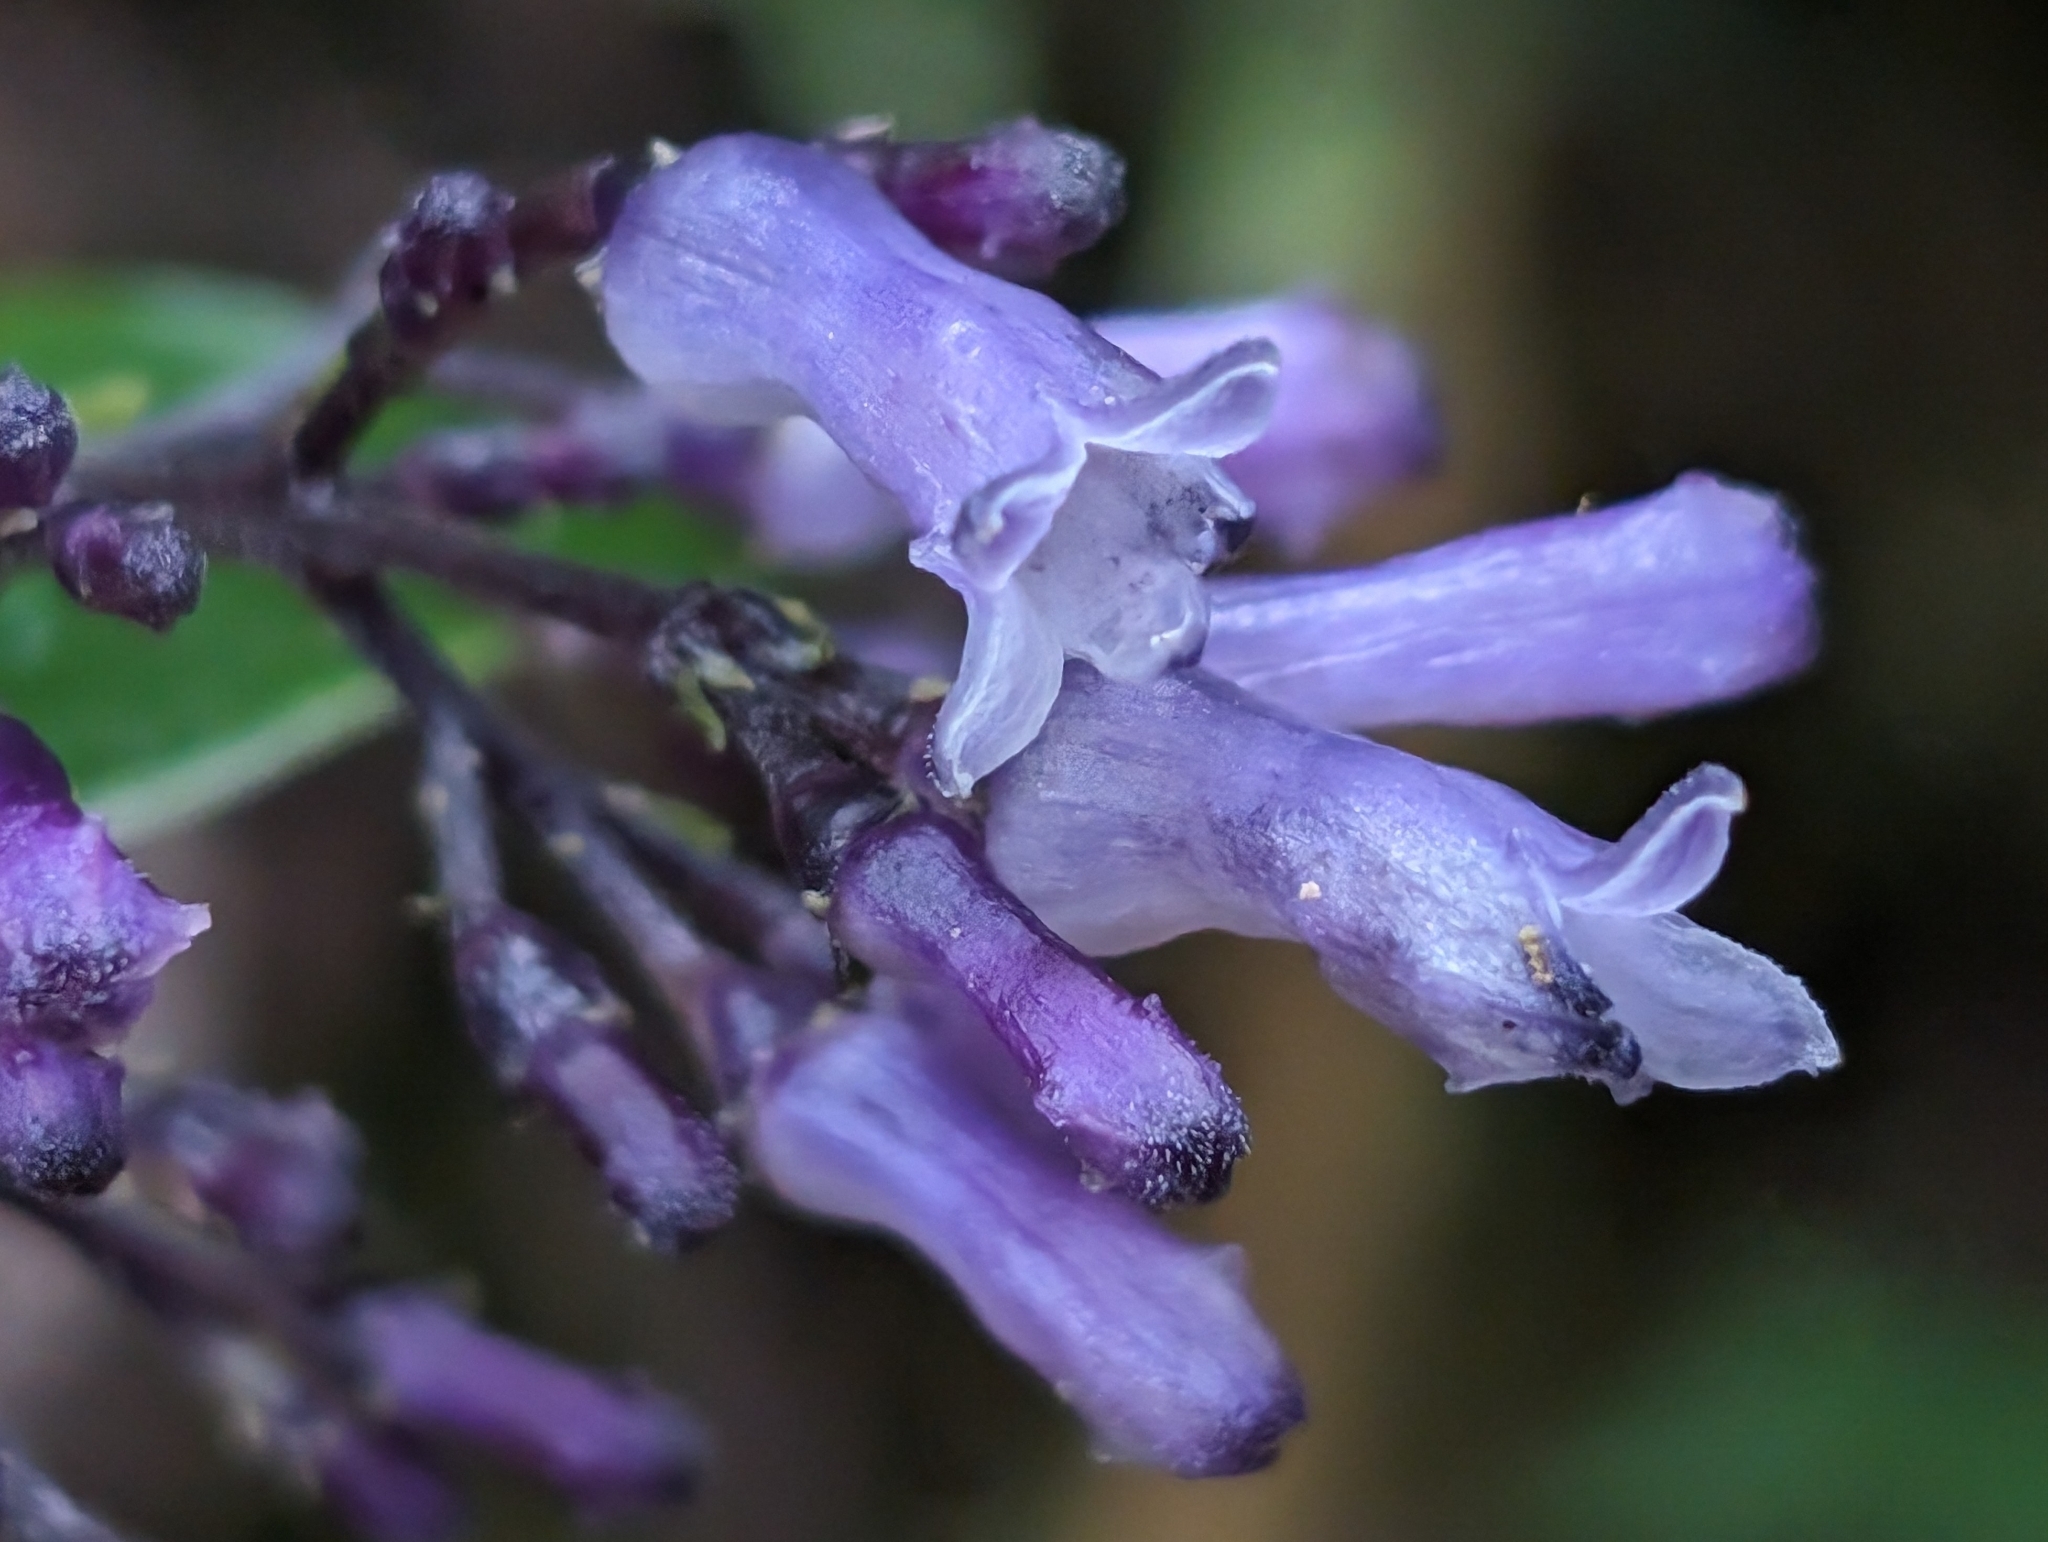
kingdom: Plantae
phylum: Tracheophyta
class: Magnoliopsida
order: Gentianales
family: Rubiaceae
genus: Palicourea
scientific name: Palicourea adusta
